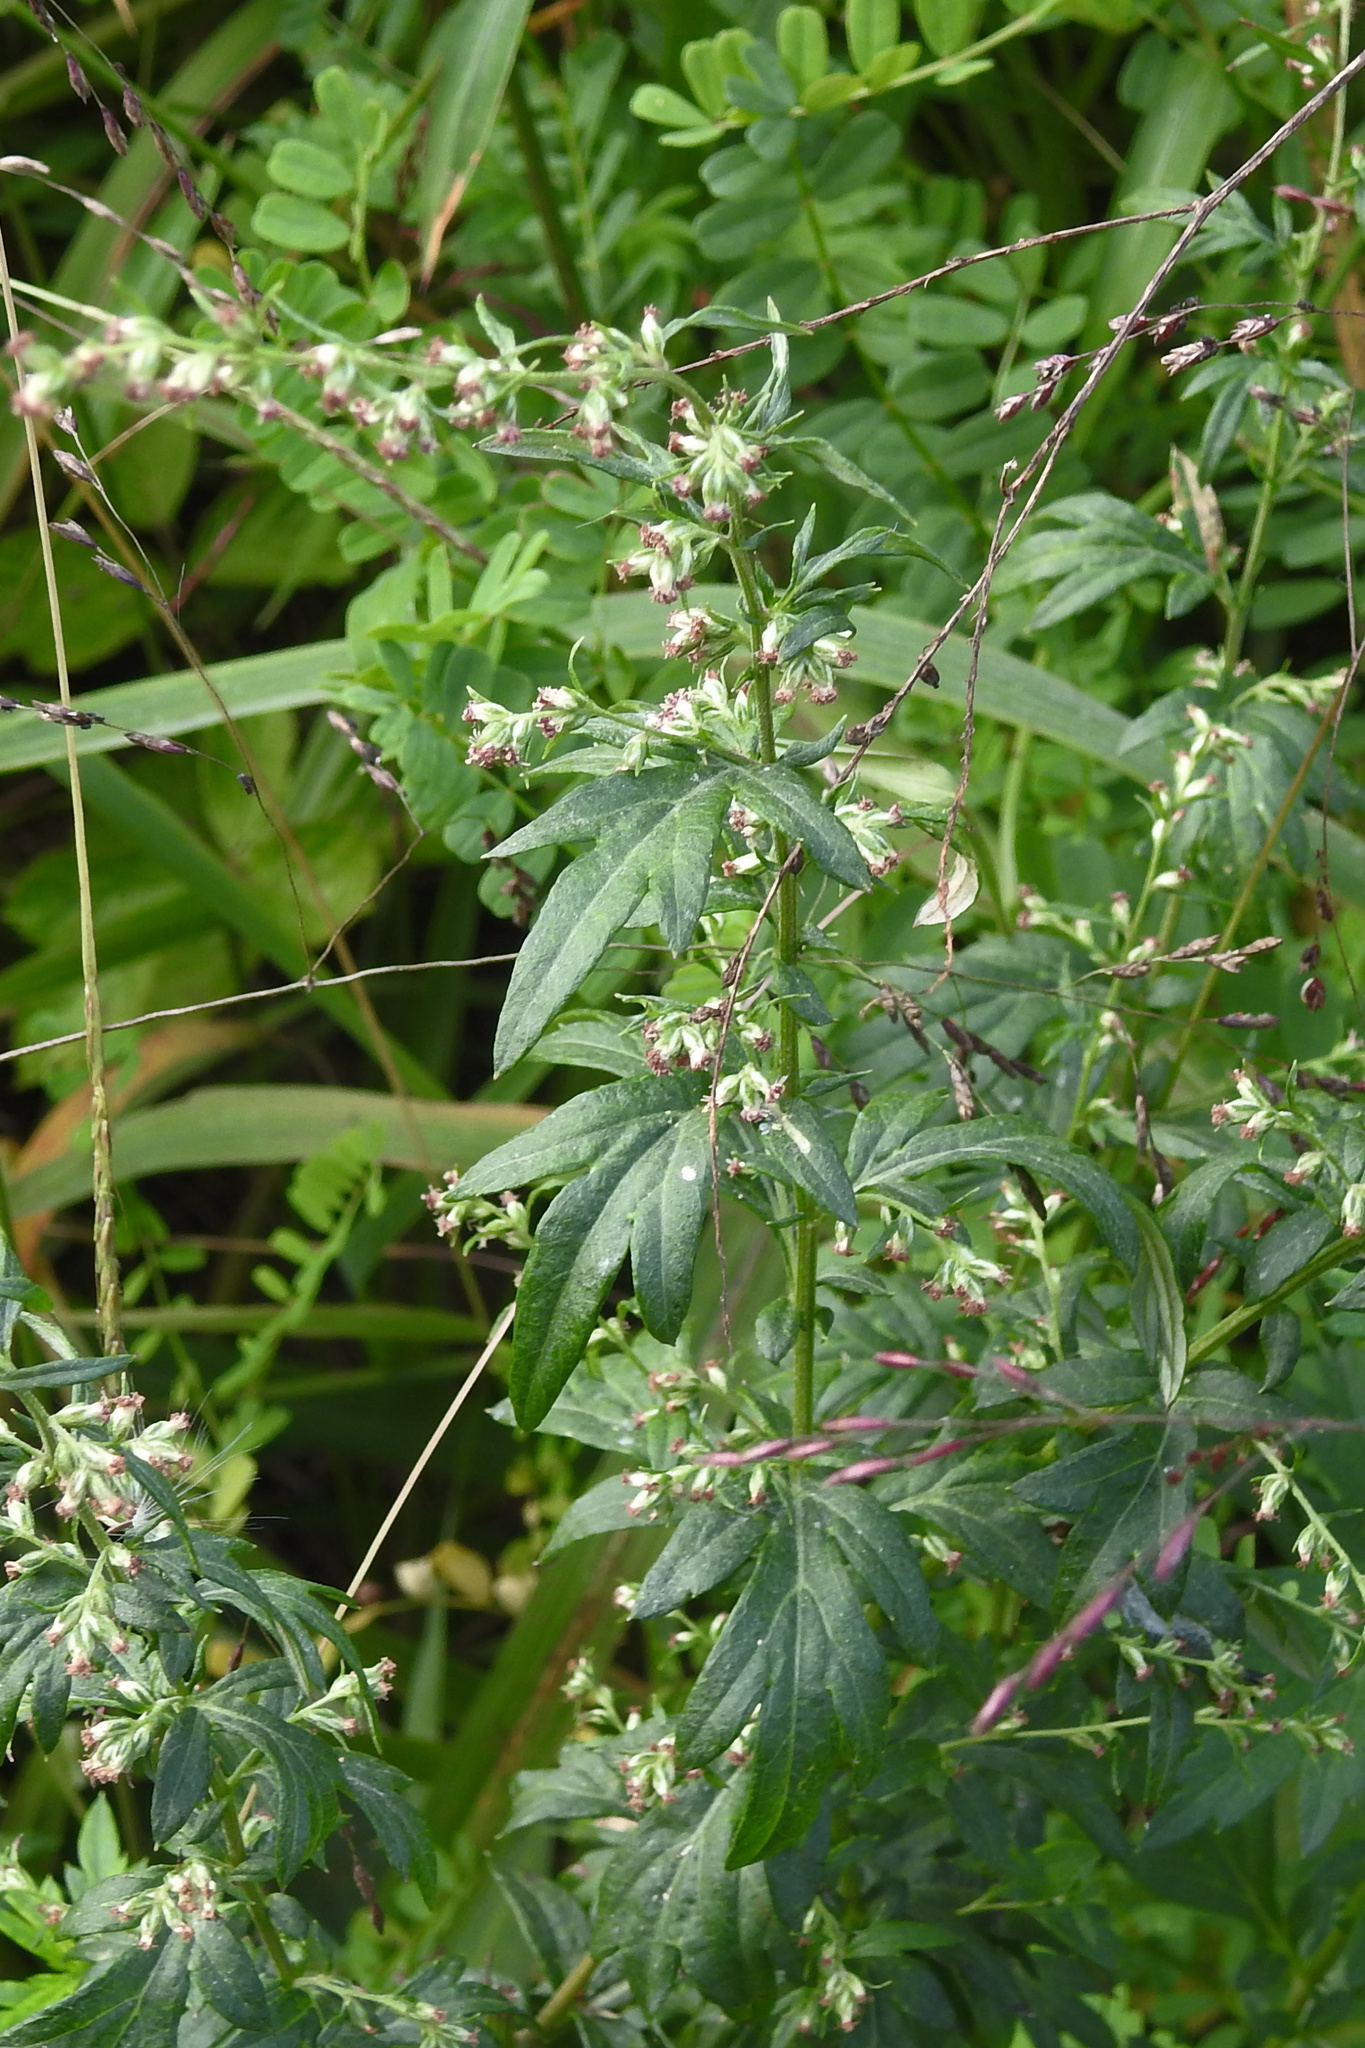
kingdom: Plantae
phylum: Tracheophyta
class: Magnoliopsida
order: Asterales
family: Asteraceae
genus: Artemisia
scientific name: Artemisia vulgaris
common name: Mugwort
